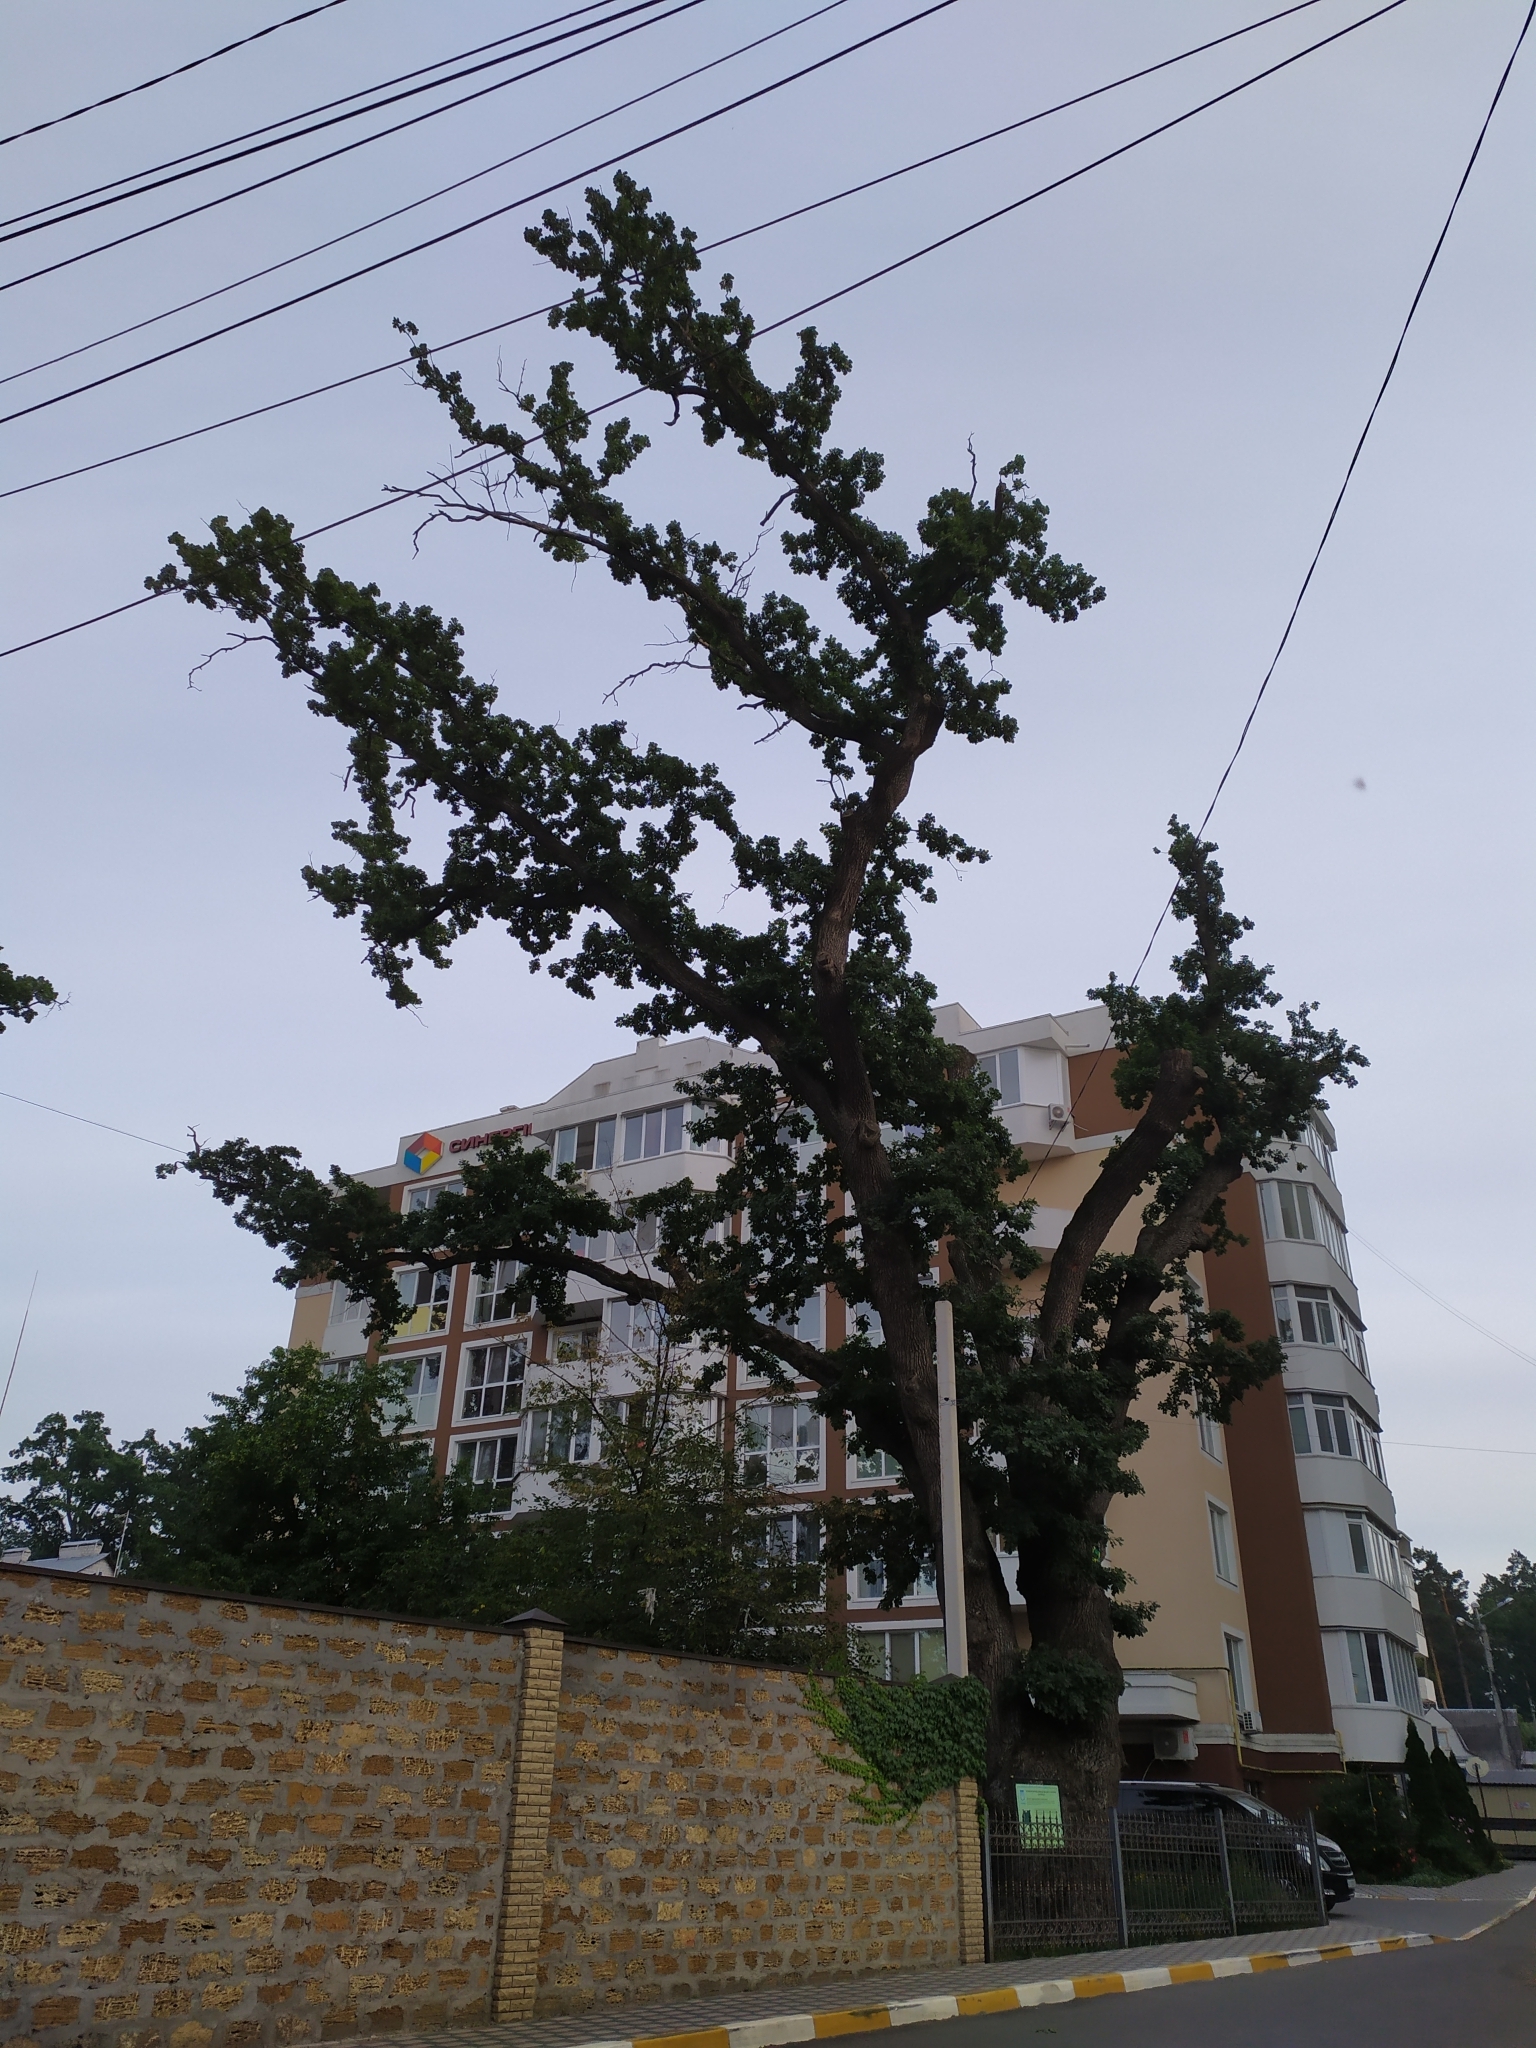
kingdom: Plantae
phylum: Tracheophyta
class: Magnoliopsida
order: Fagales
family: Fagaceae
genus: Quercus
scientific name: Quercus robur
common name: Pedunculate oak
